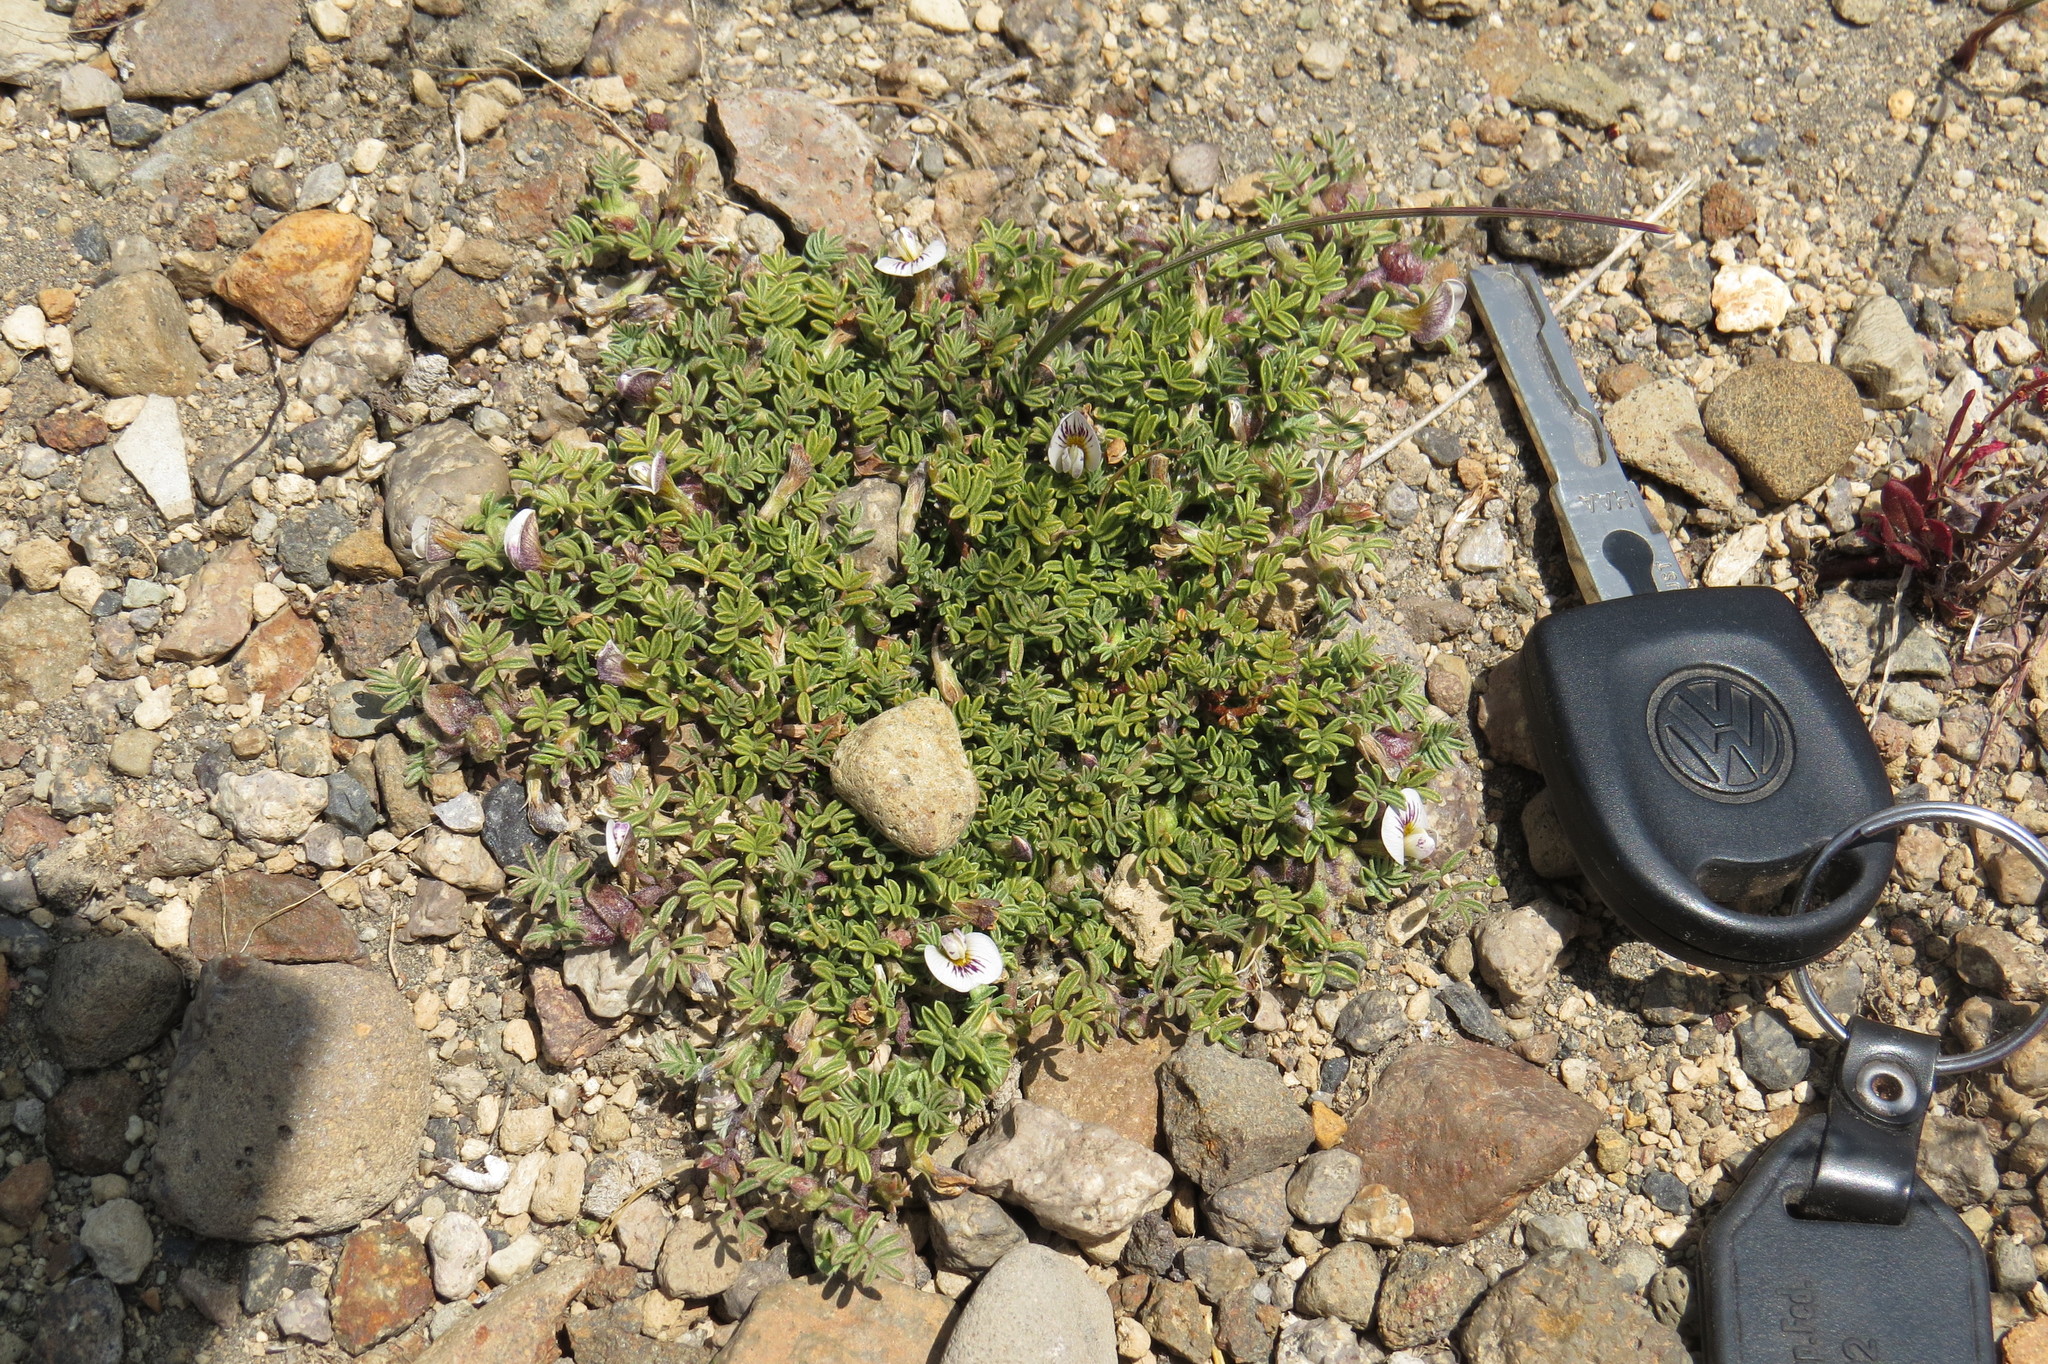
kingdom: Plantae
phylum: Tracheophyta
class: Magnoliopsida
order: Fabales
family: Fabaceae
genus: Adesmia
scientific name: Adesmia parvifolia
